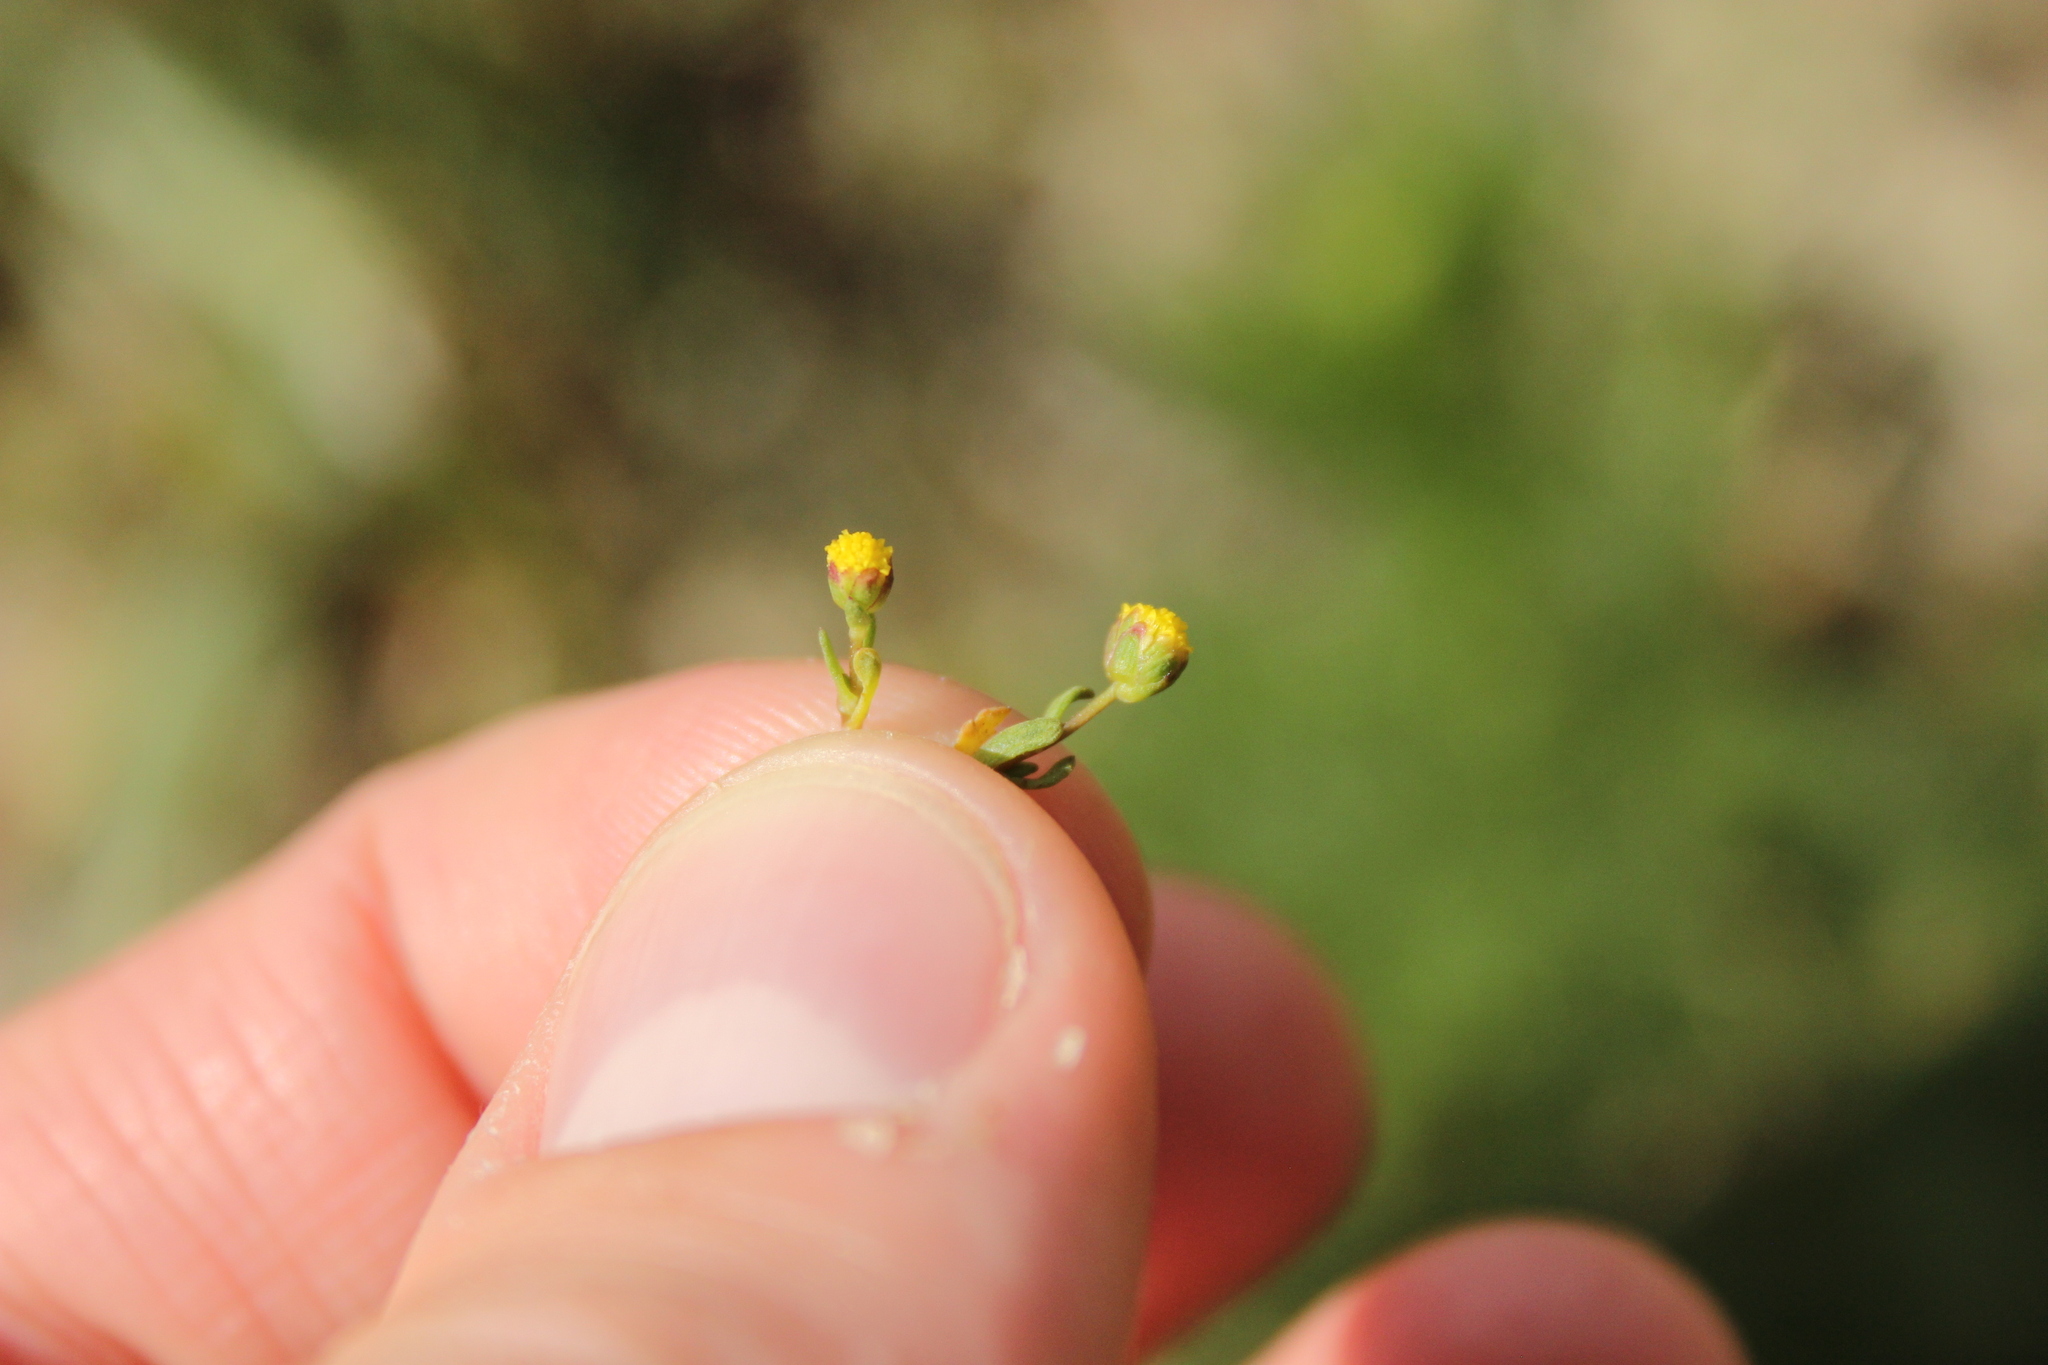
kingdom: Plantae
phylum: Tracheophyta
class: Magnoliopsida
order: Asterales
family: Asteraceae
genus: Cotula
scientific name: Cotula coronopifolia
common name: Buttonweed
